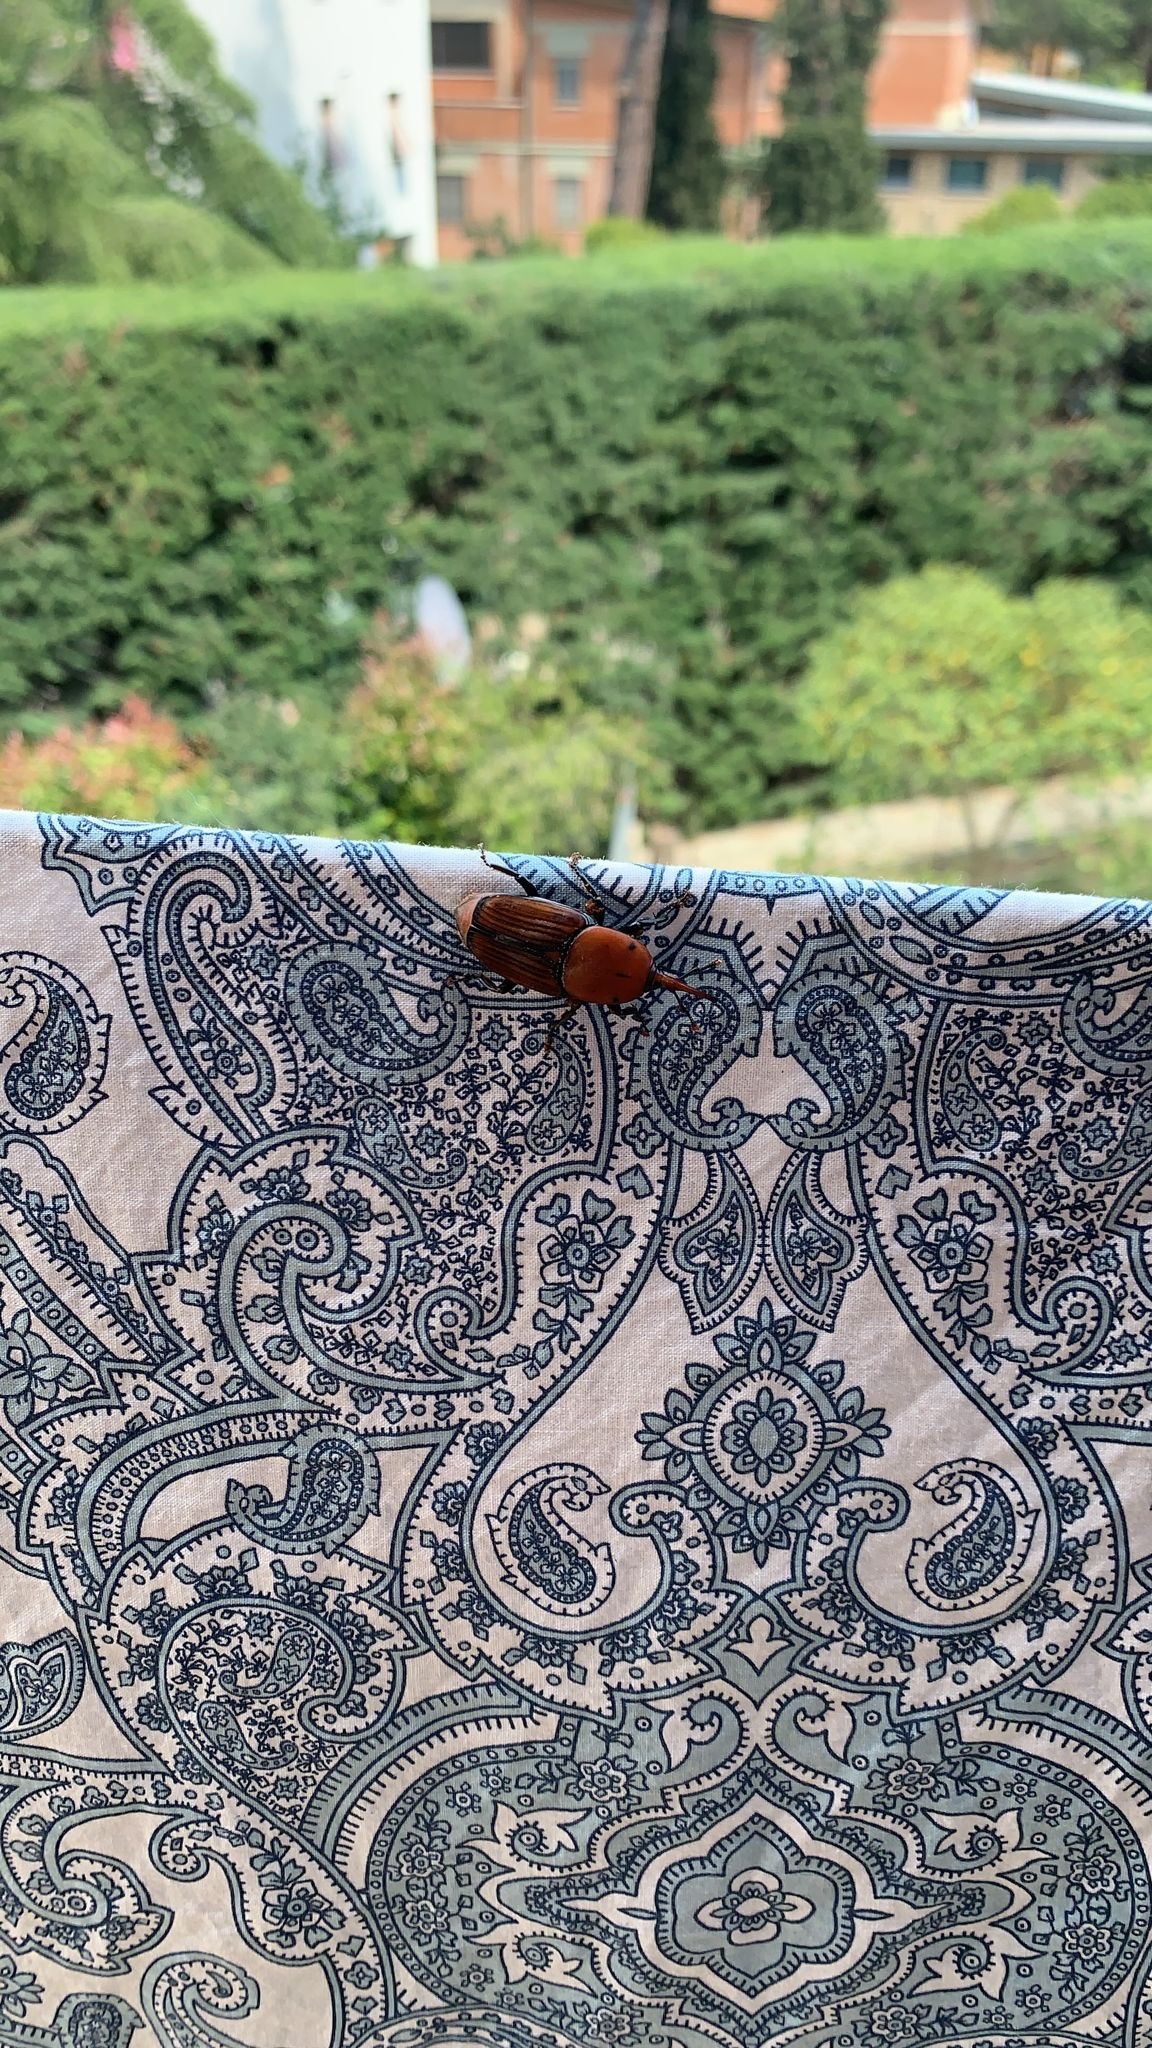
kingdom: Animalia
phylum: Arthropoda
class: Insecta
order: Coleoptera
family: Dryophthoridae
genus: Rhynchophorus
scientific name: Rhynchophorus ferrugineus
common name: Red palm weevil
